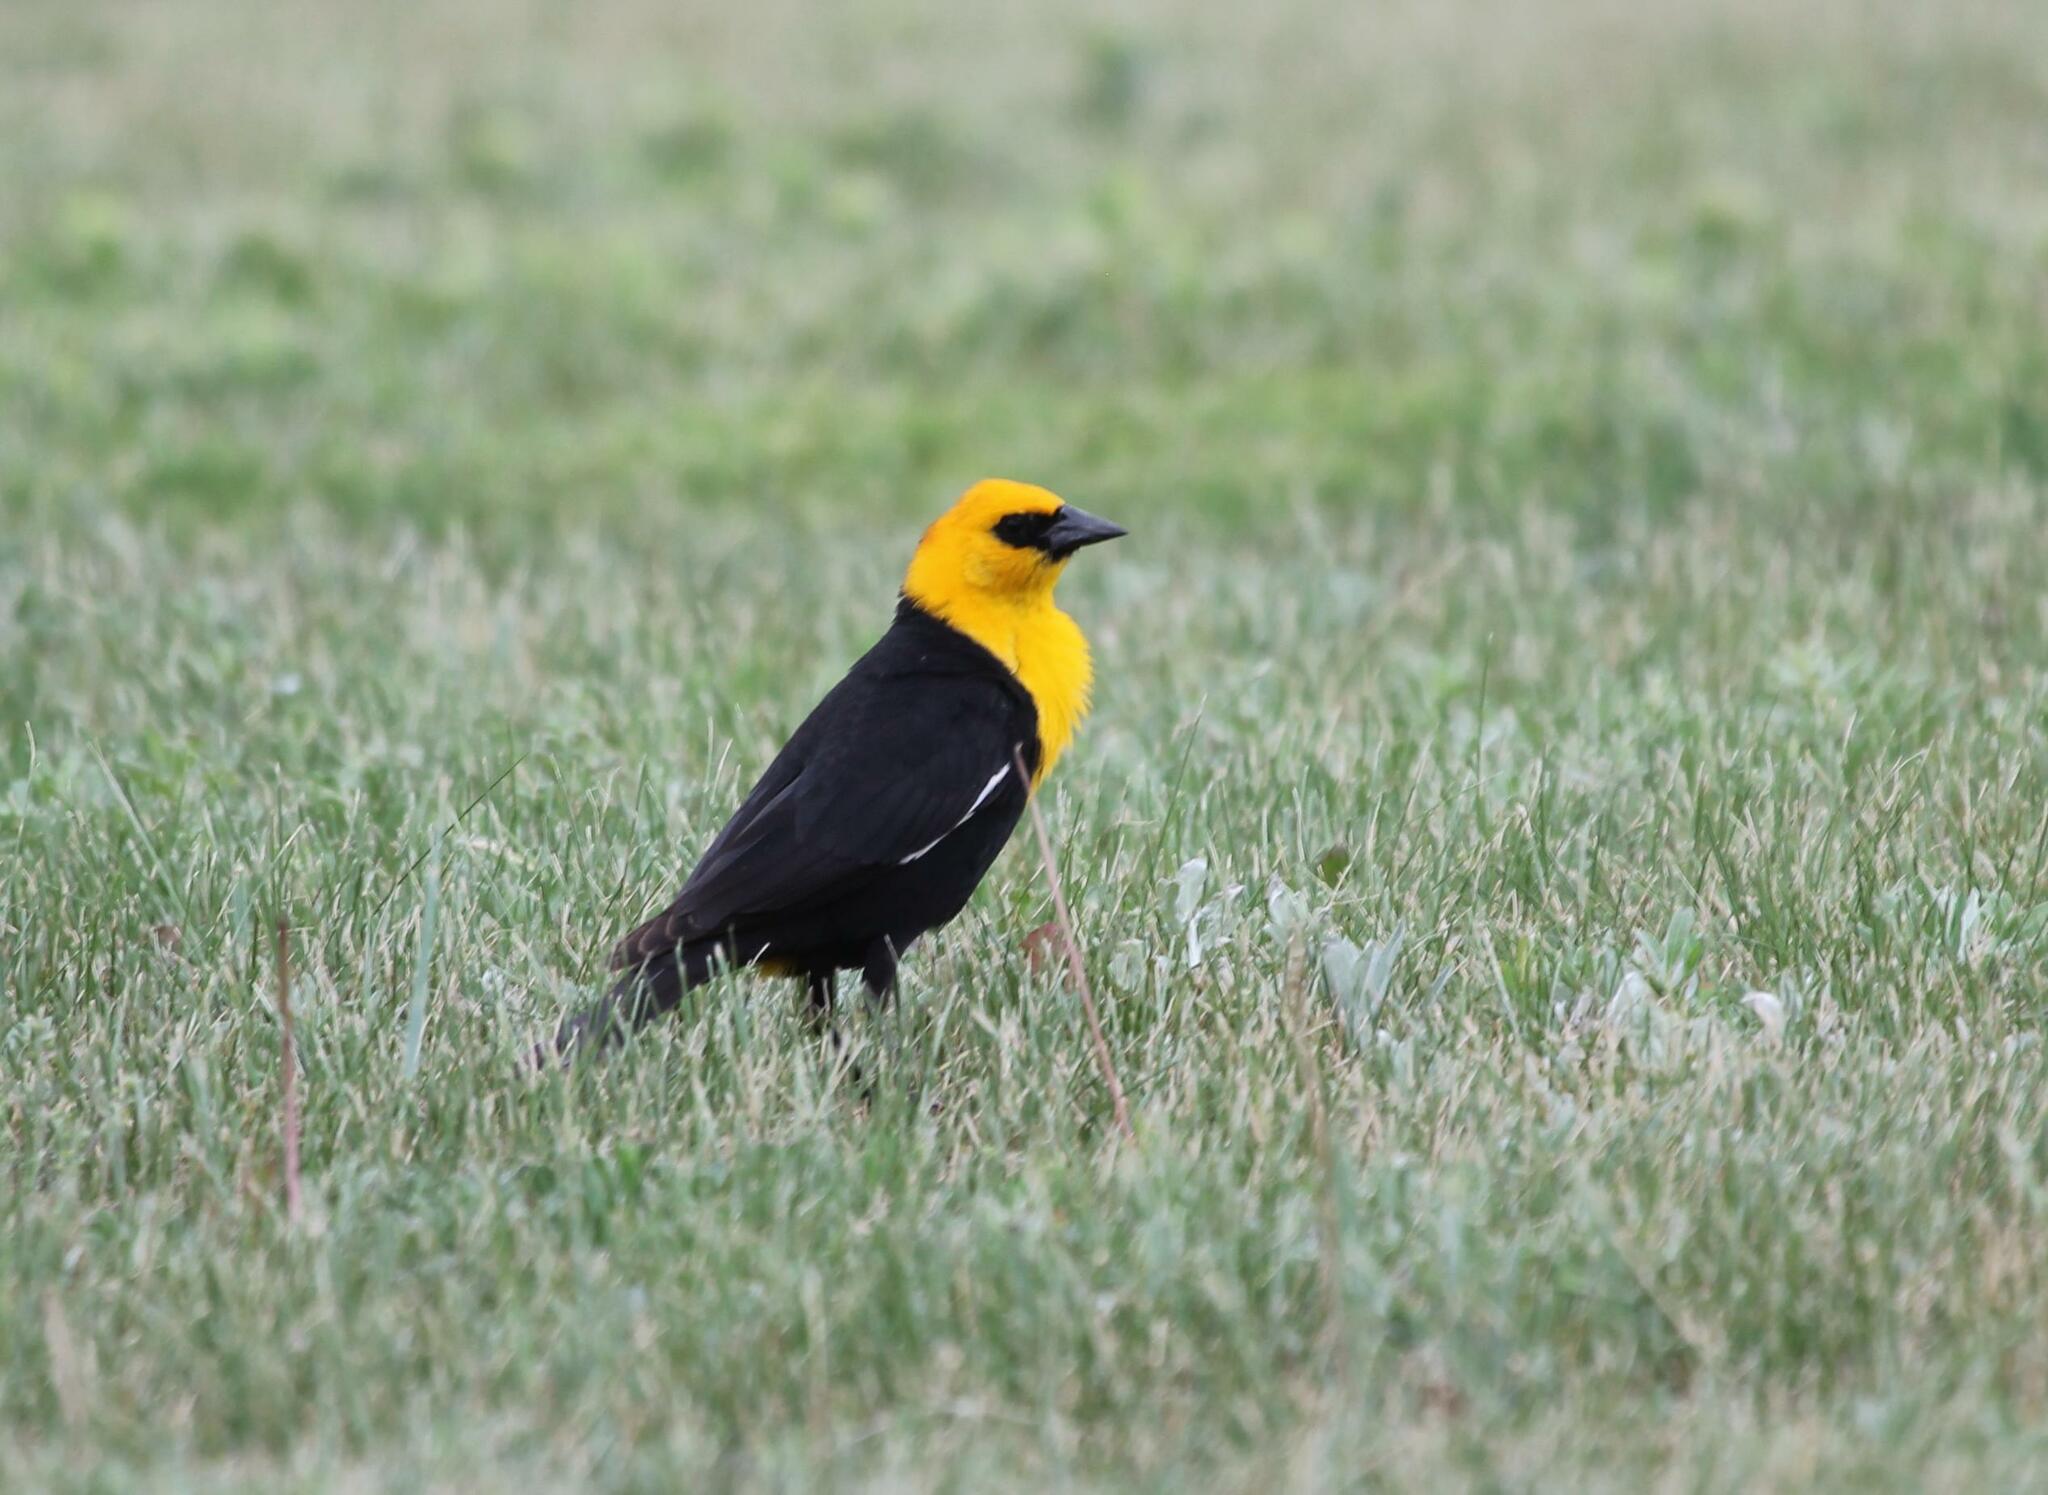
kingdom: Animalia
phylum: Chordata
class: Aves
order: Passeriformes
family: Icteridae
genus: Xanthocephalus
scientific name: Xanthocephalus xanthocephalus
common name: Yellow-headed blackbird
